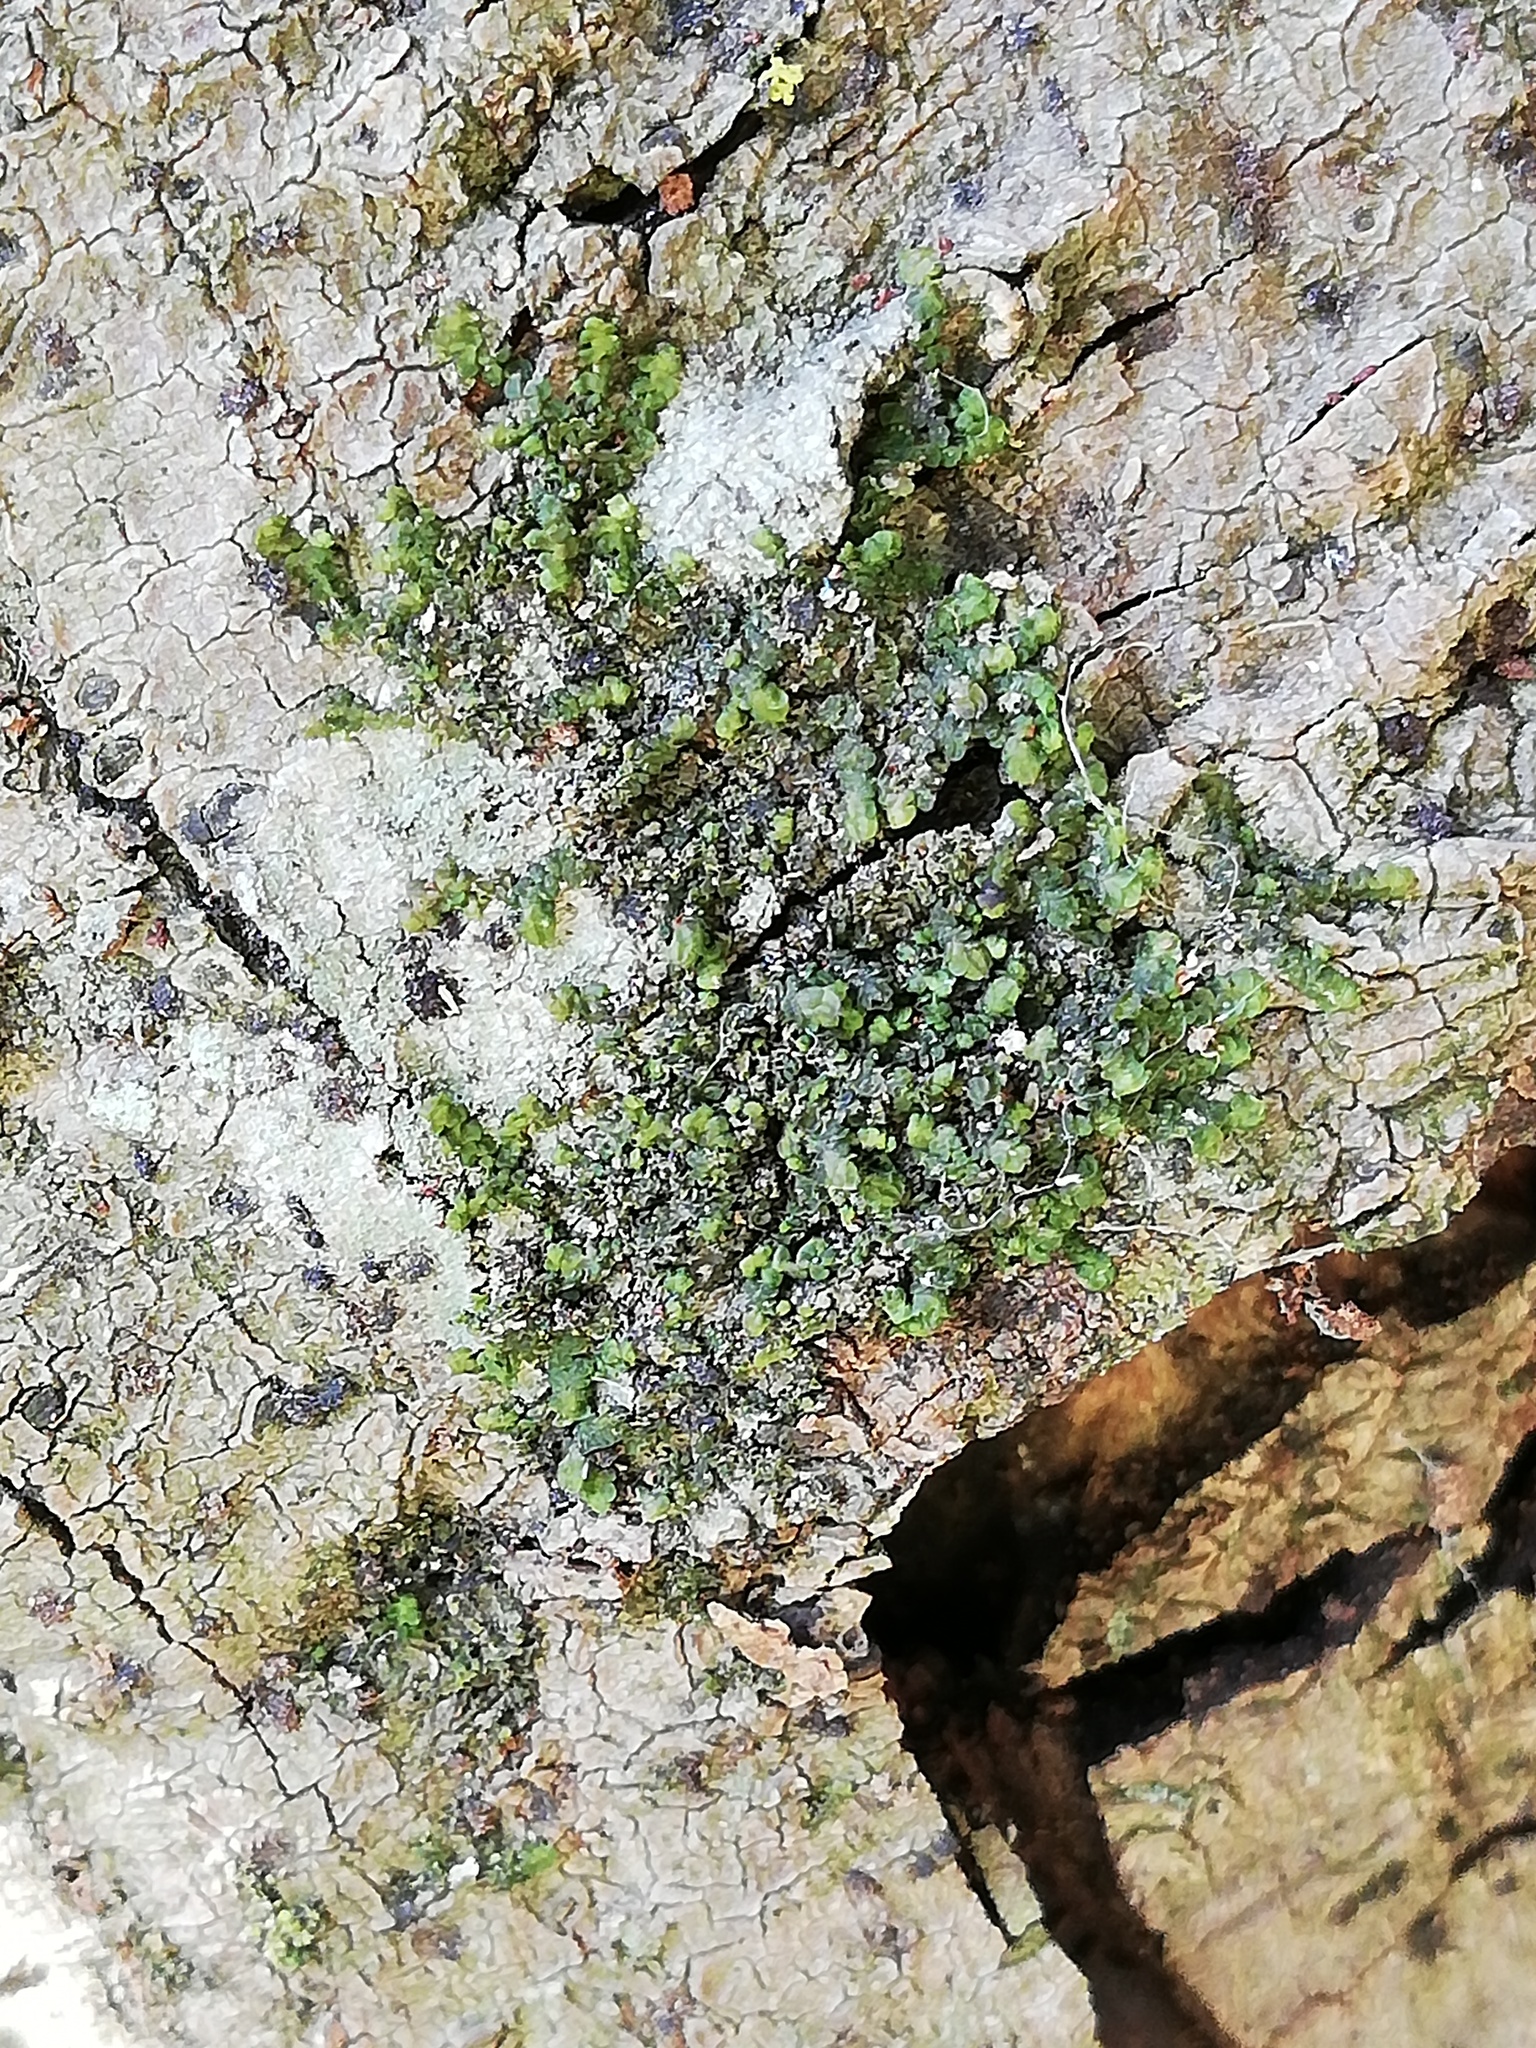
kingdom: Plantae
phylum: Marchantiophyta
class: Jungermanniopsida
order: Porellales
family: Radulaceae
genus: Radula
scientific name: Radula complanata
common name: Flat-leaved scalewort
